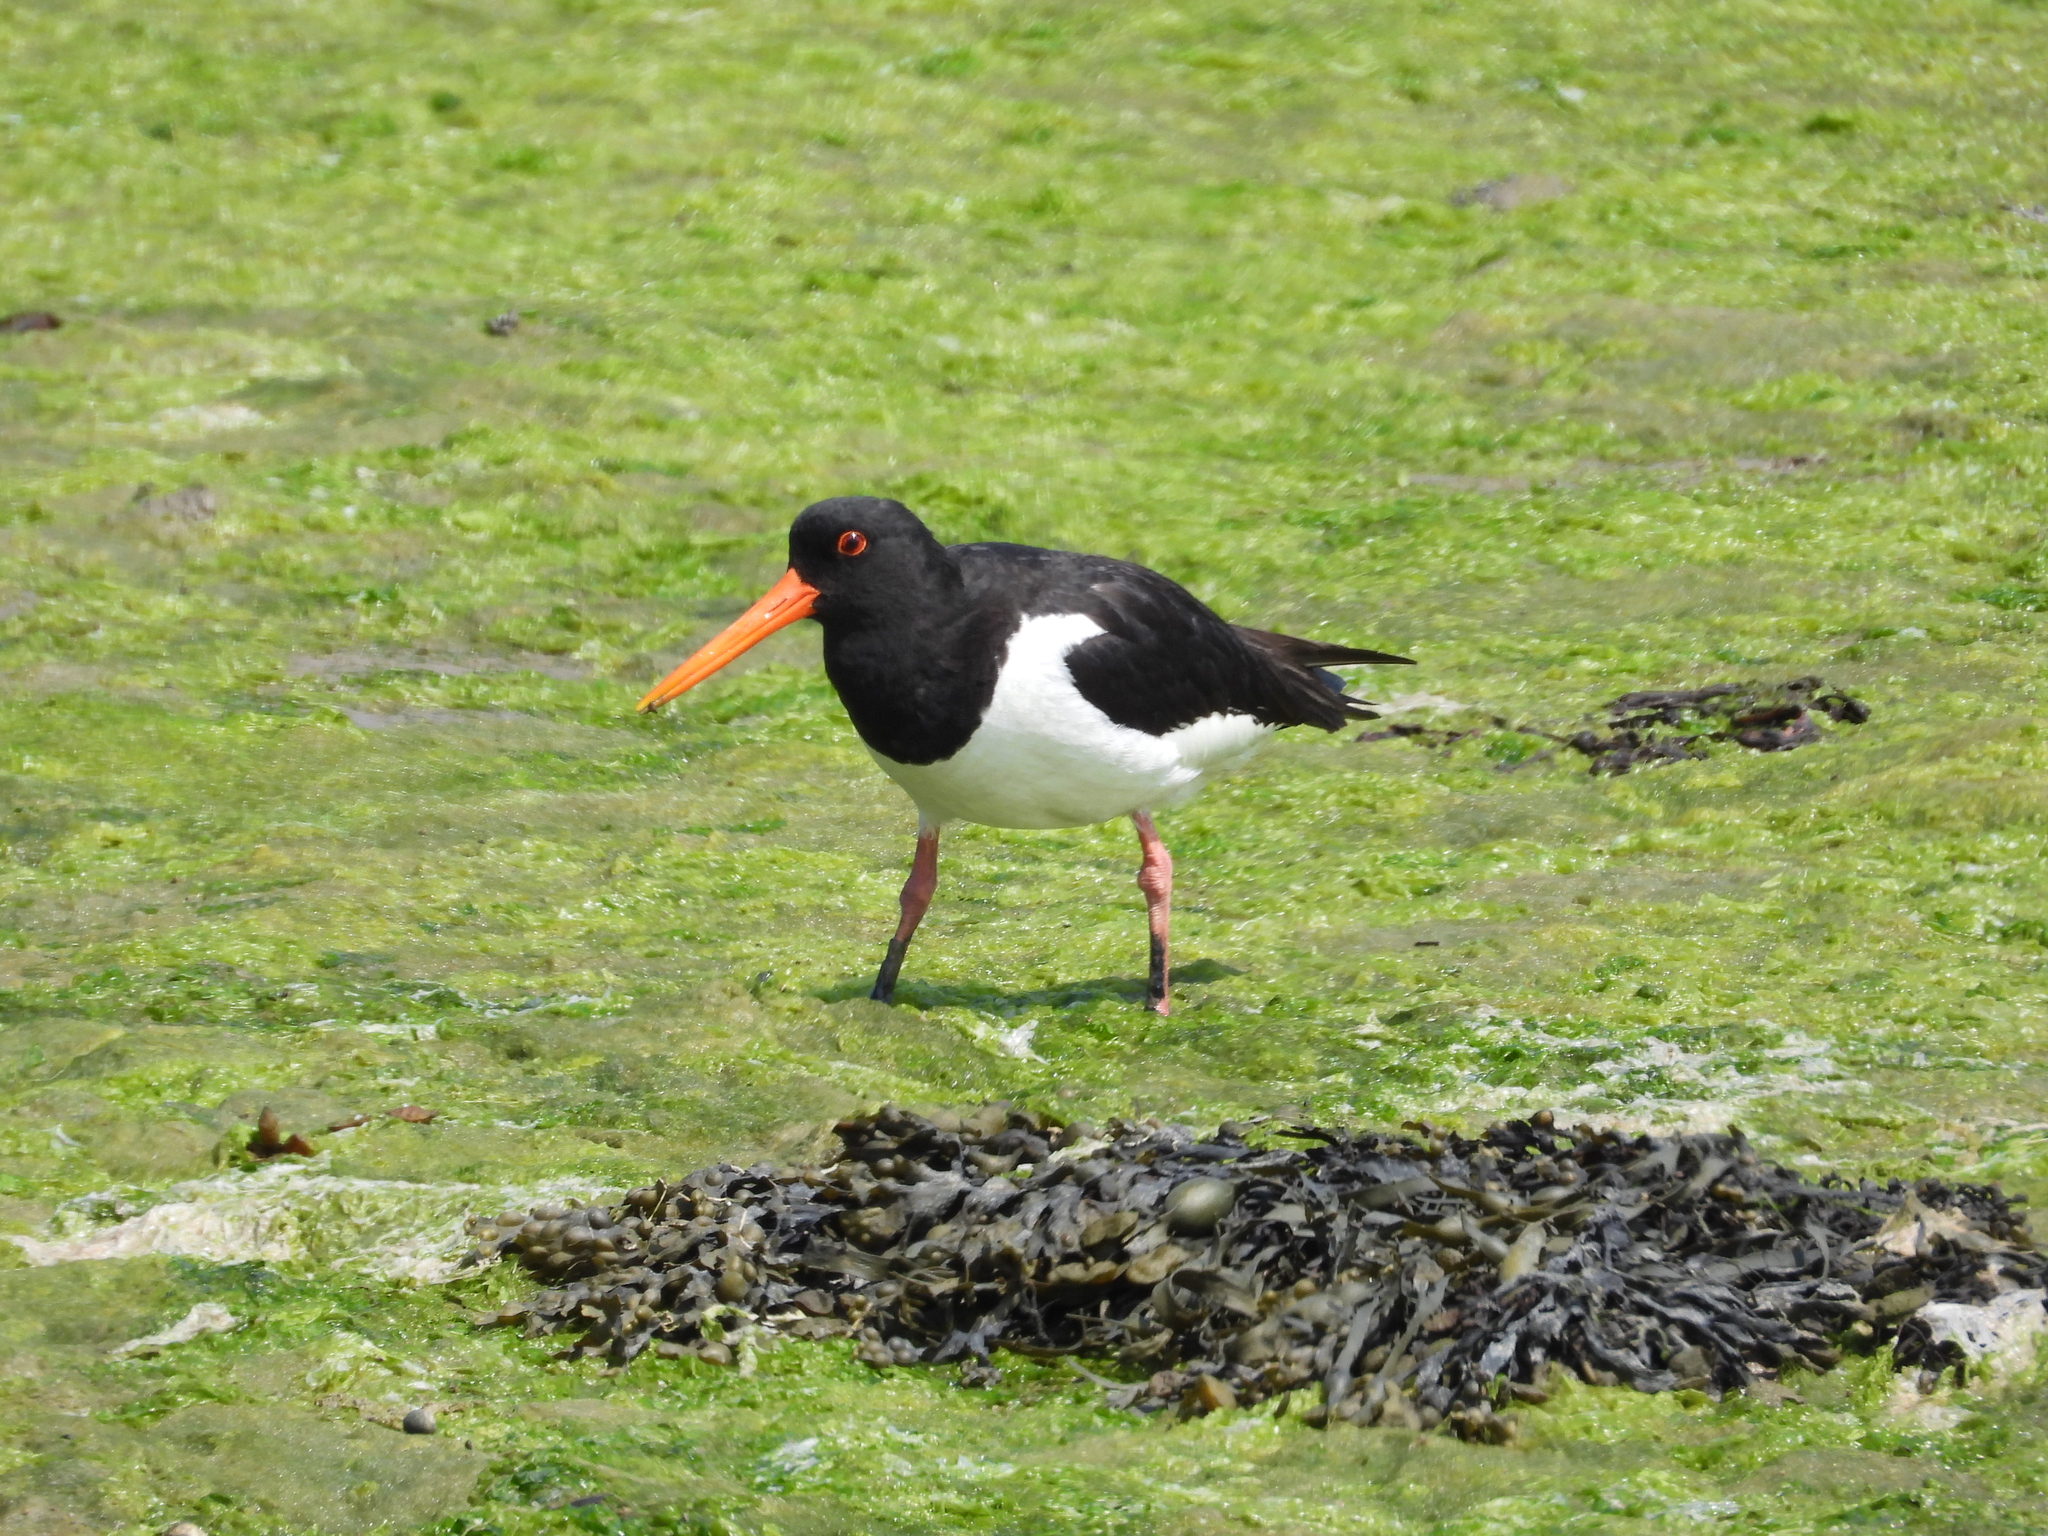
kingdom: Animalia
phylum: Chordata
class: Aves
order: Charadriiformes
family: Haematopodidae
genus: Haematopus
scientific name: Haematopus ostralegus
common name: Eurasian oystercatcher
